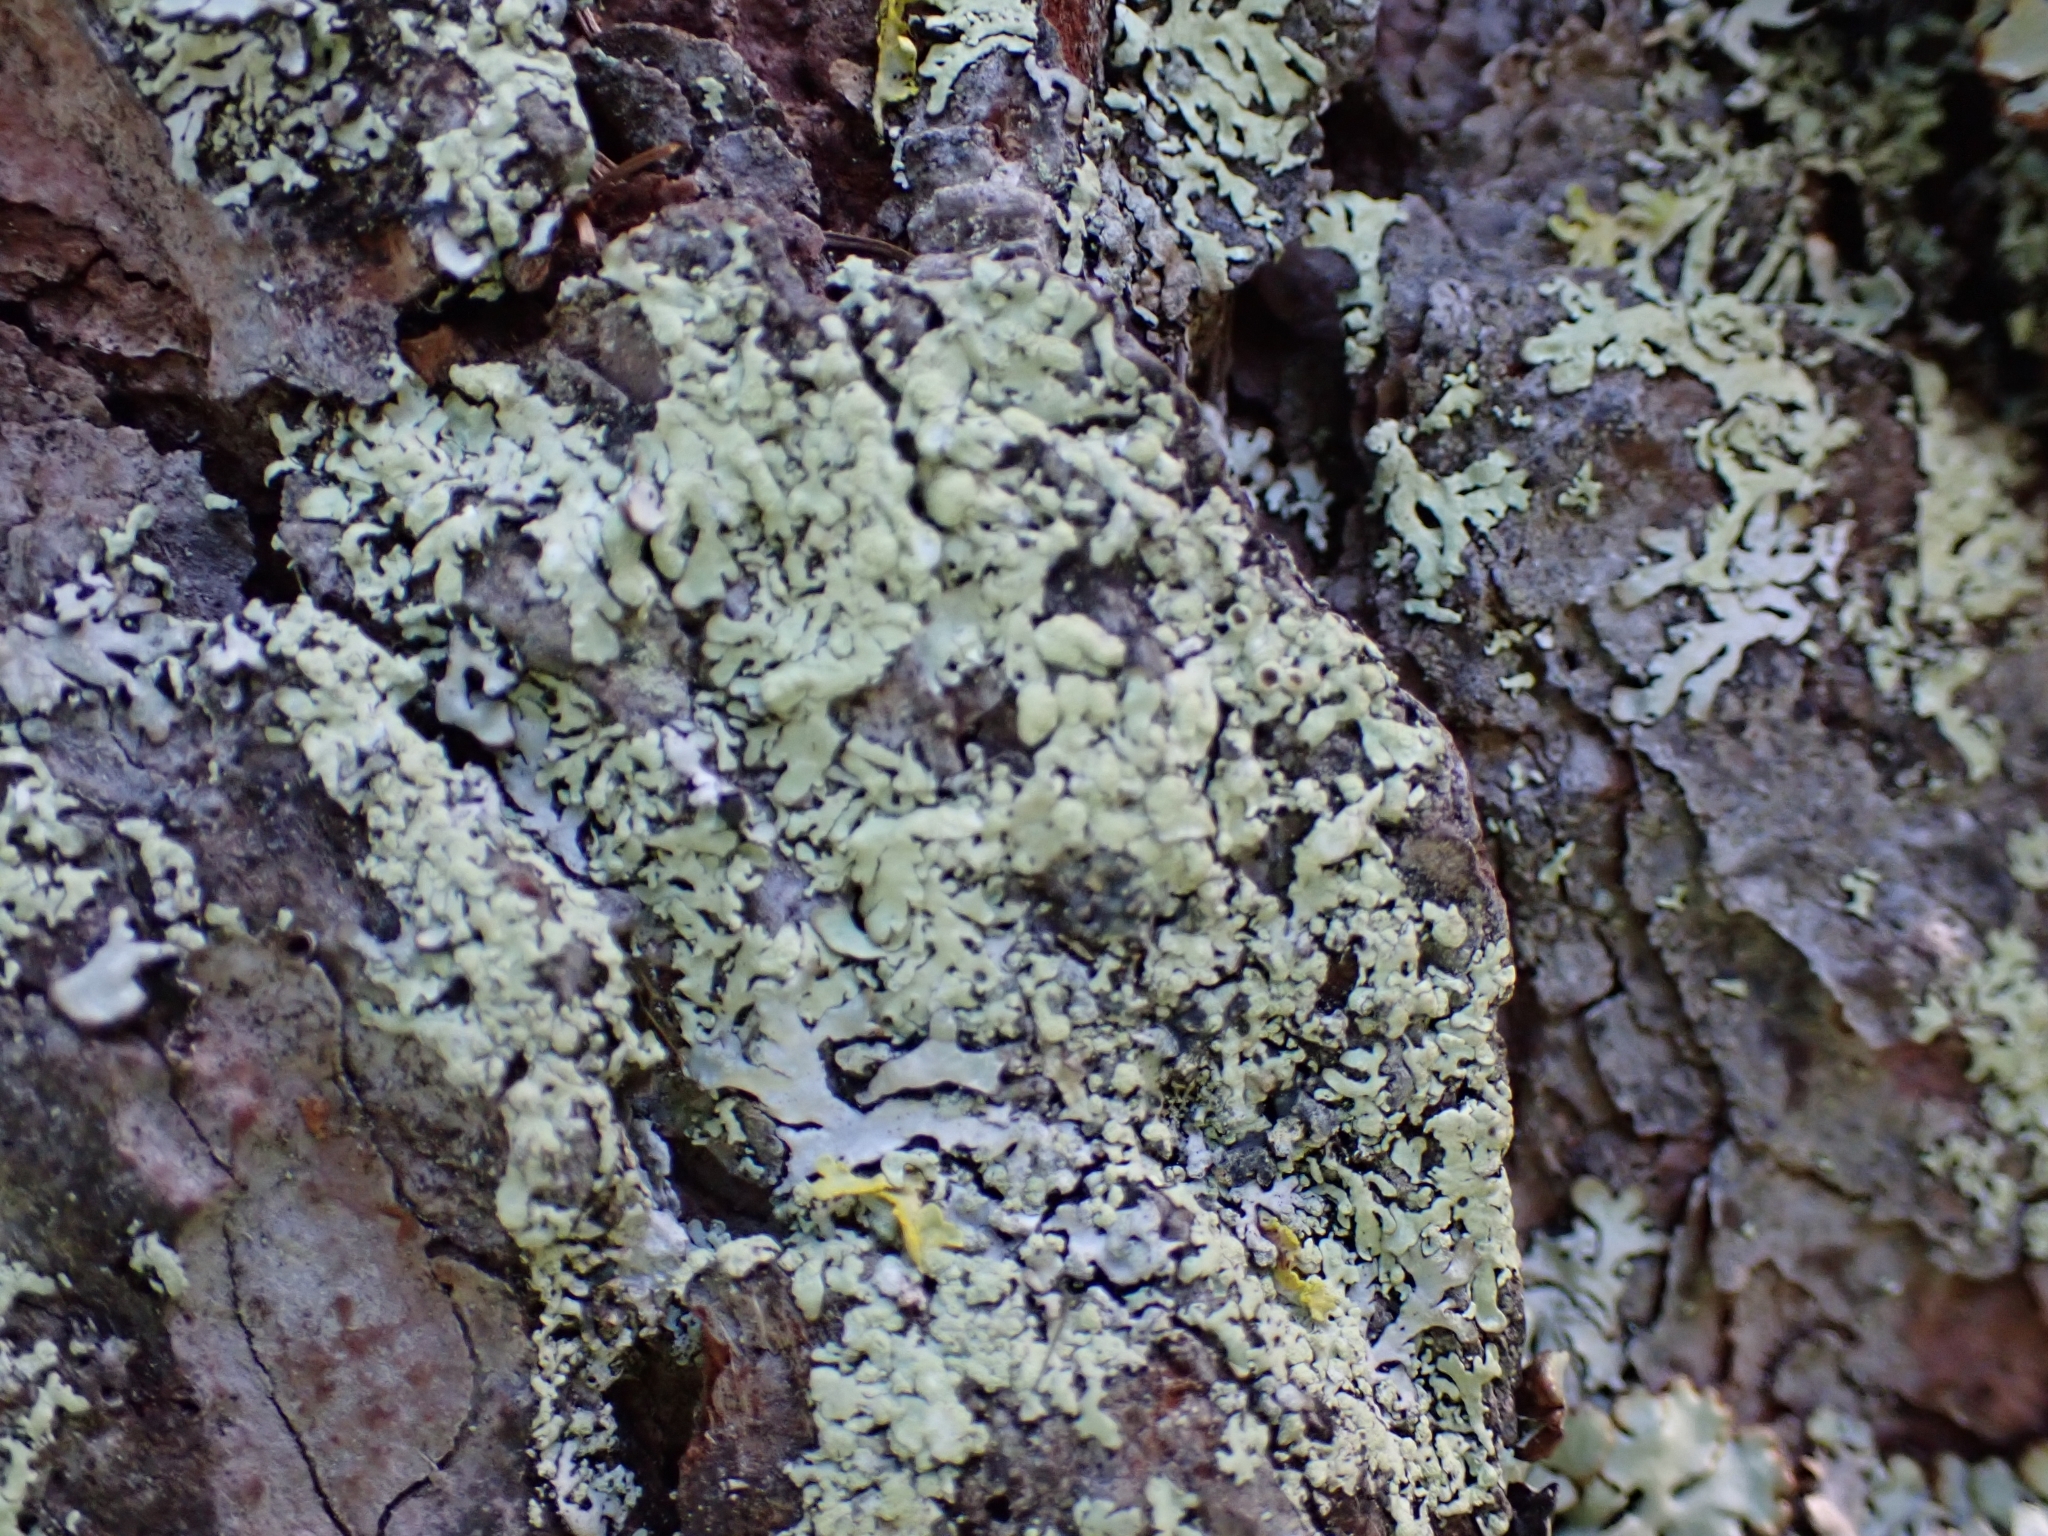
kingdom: Fungi
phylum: Ascomycota
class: Lecanoromycetes
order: Lecanorales
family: Parmeliaceae
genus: Parmeliopsis
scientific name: Parmeliopsis ambigua
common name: Green starburst lichen
